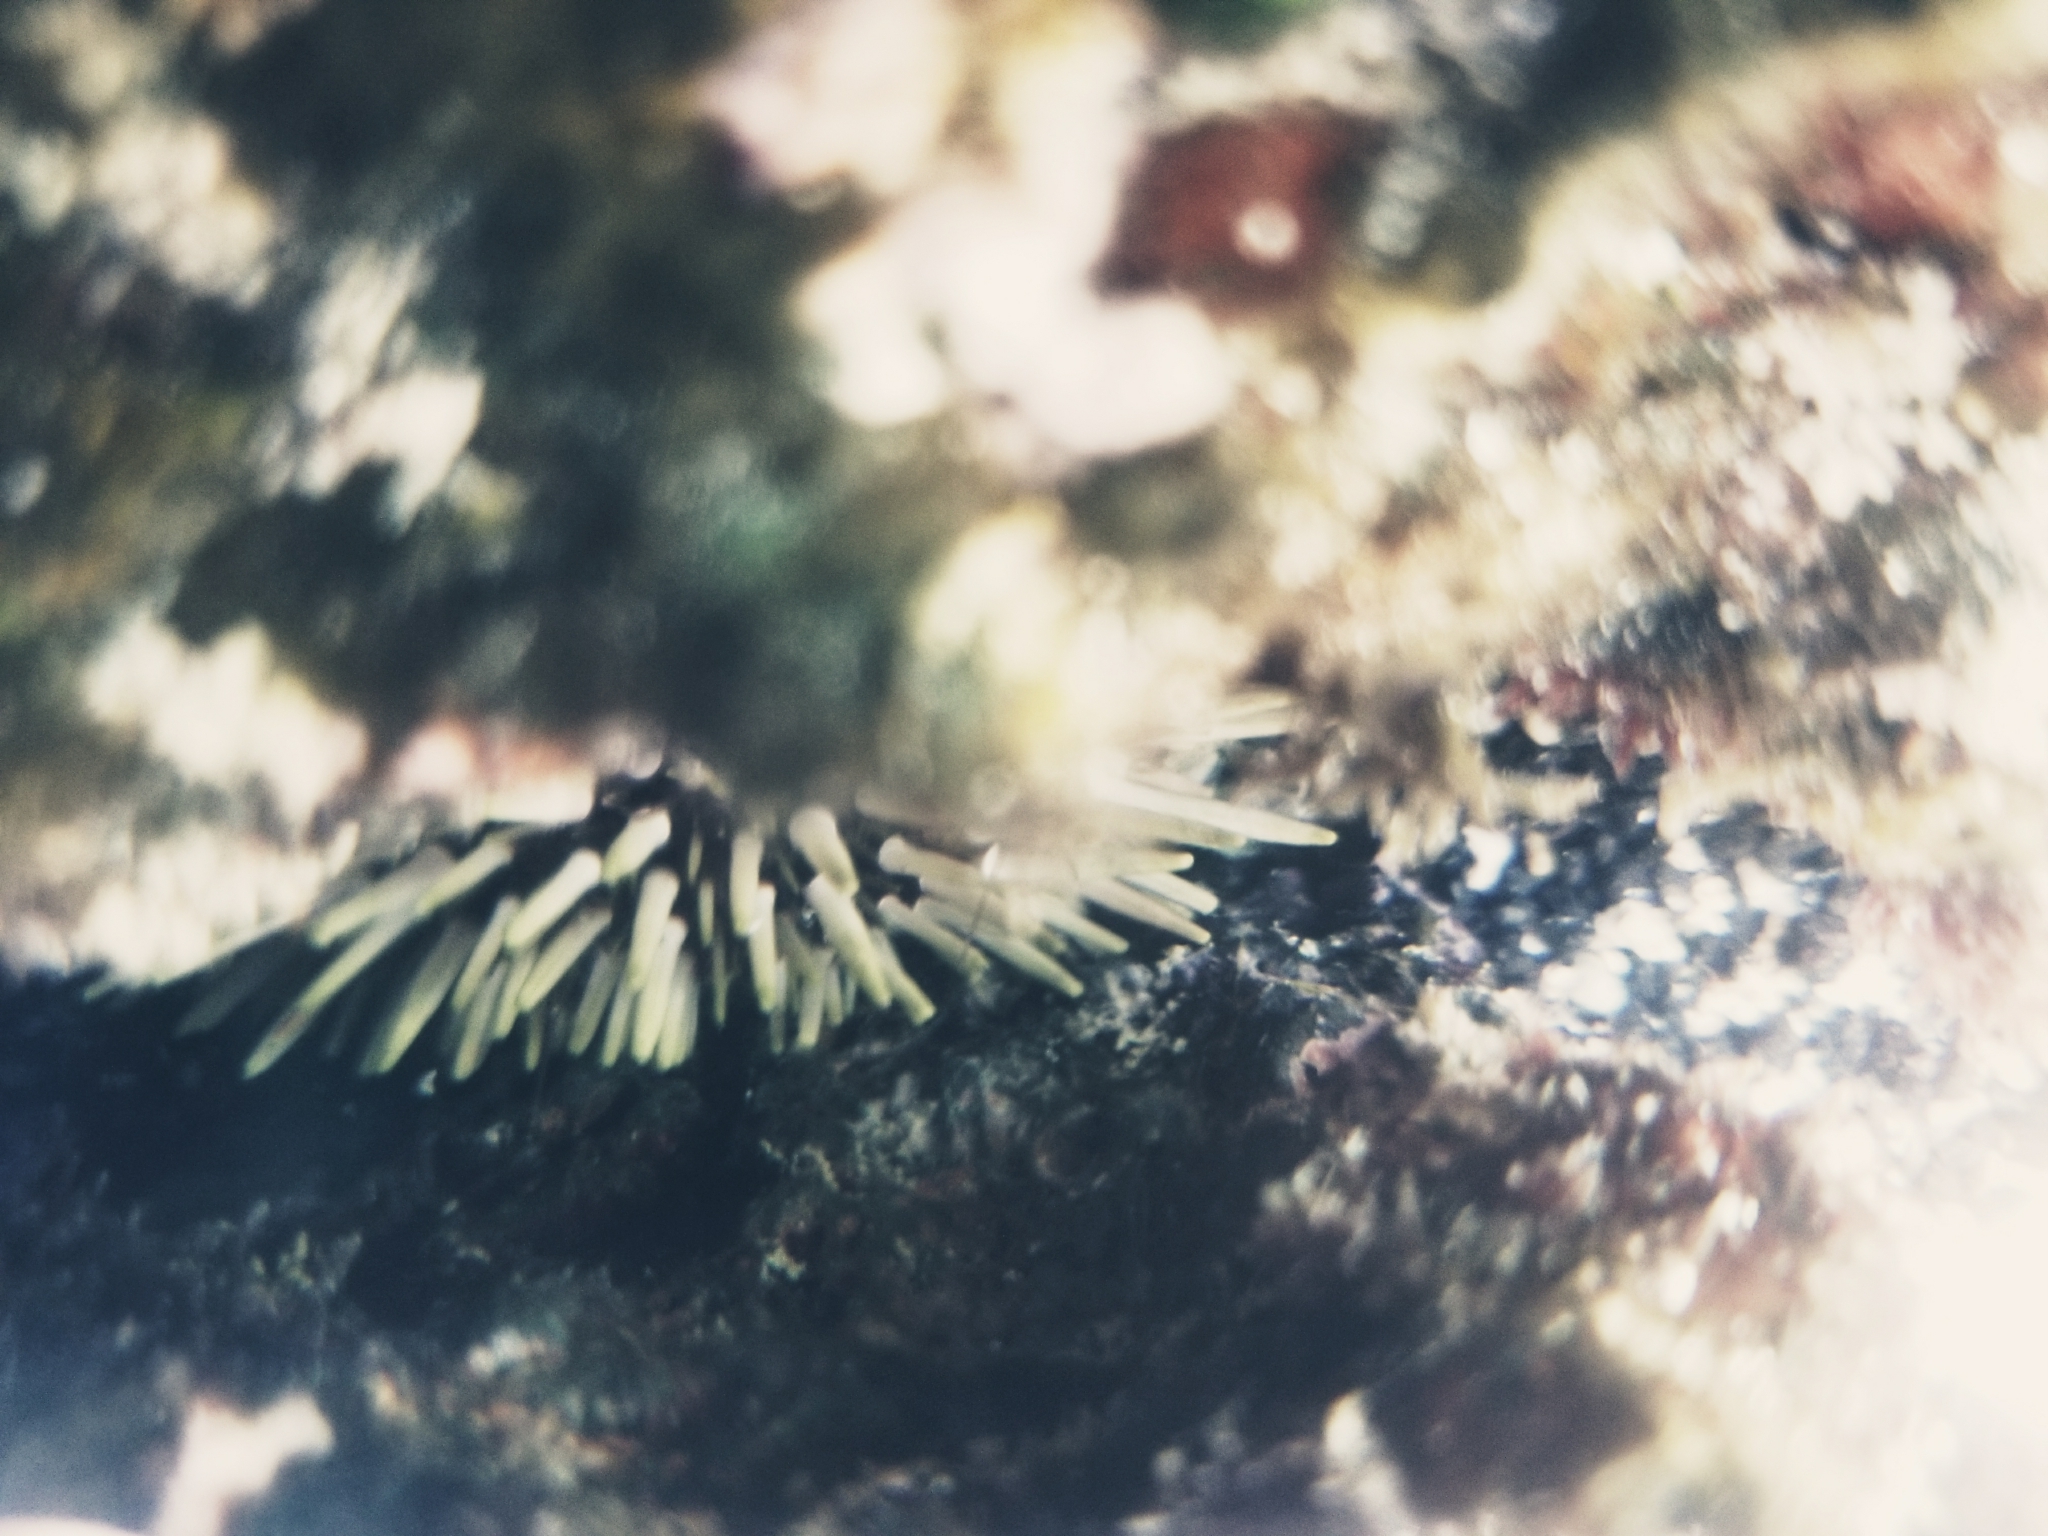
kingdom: Animalia
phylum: Echinodermata
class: Echinoidea
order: Camarodonta
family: Echinometridae
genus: Echinometra
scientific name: Echinometra mathaei
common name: Rock-boring urchin
